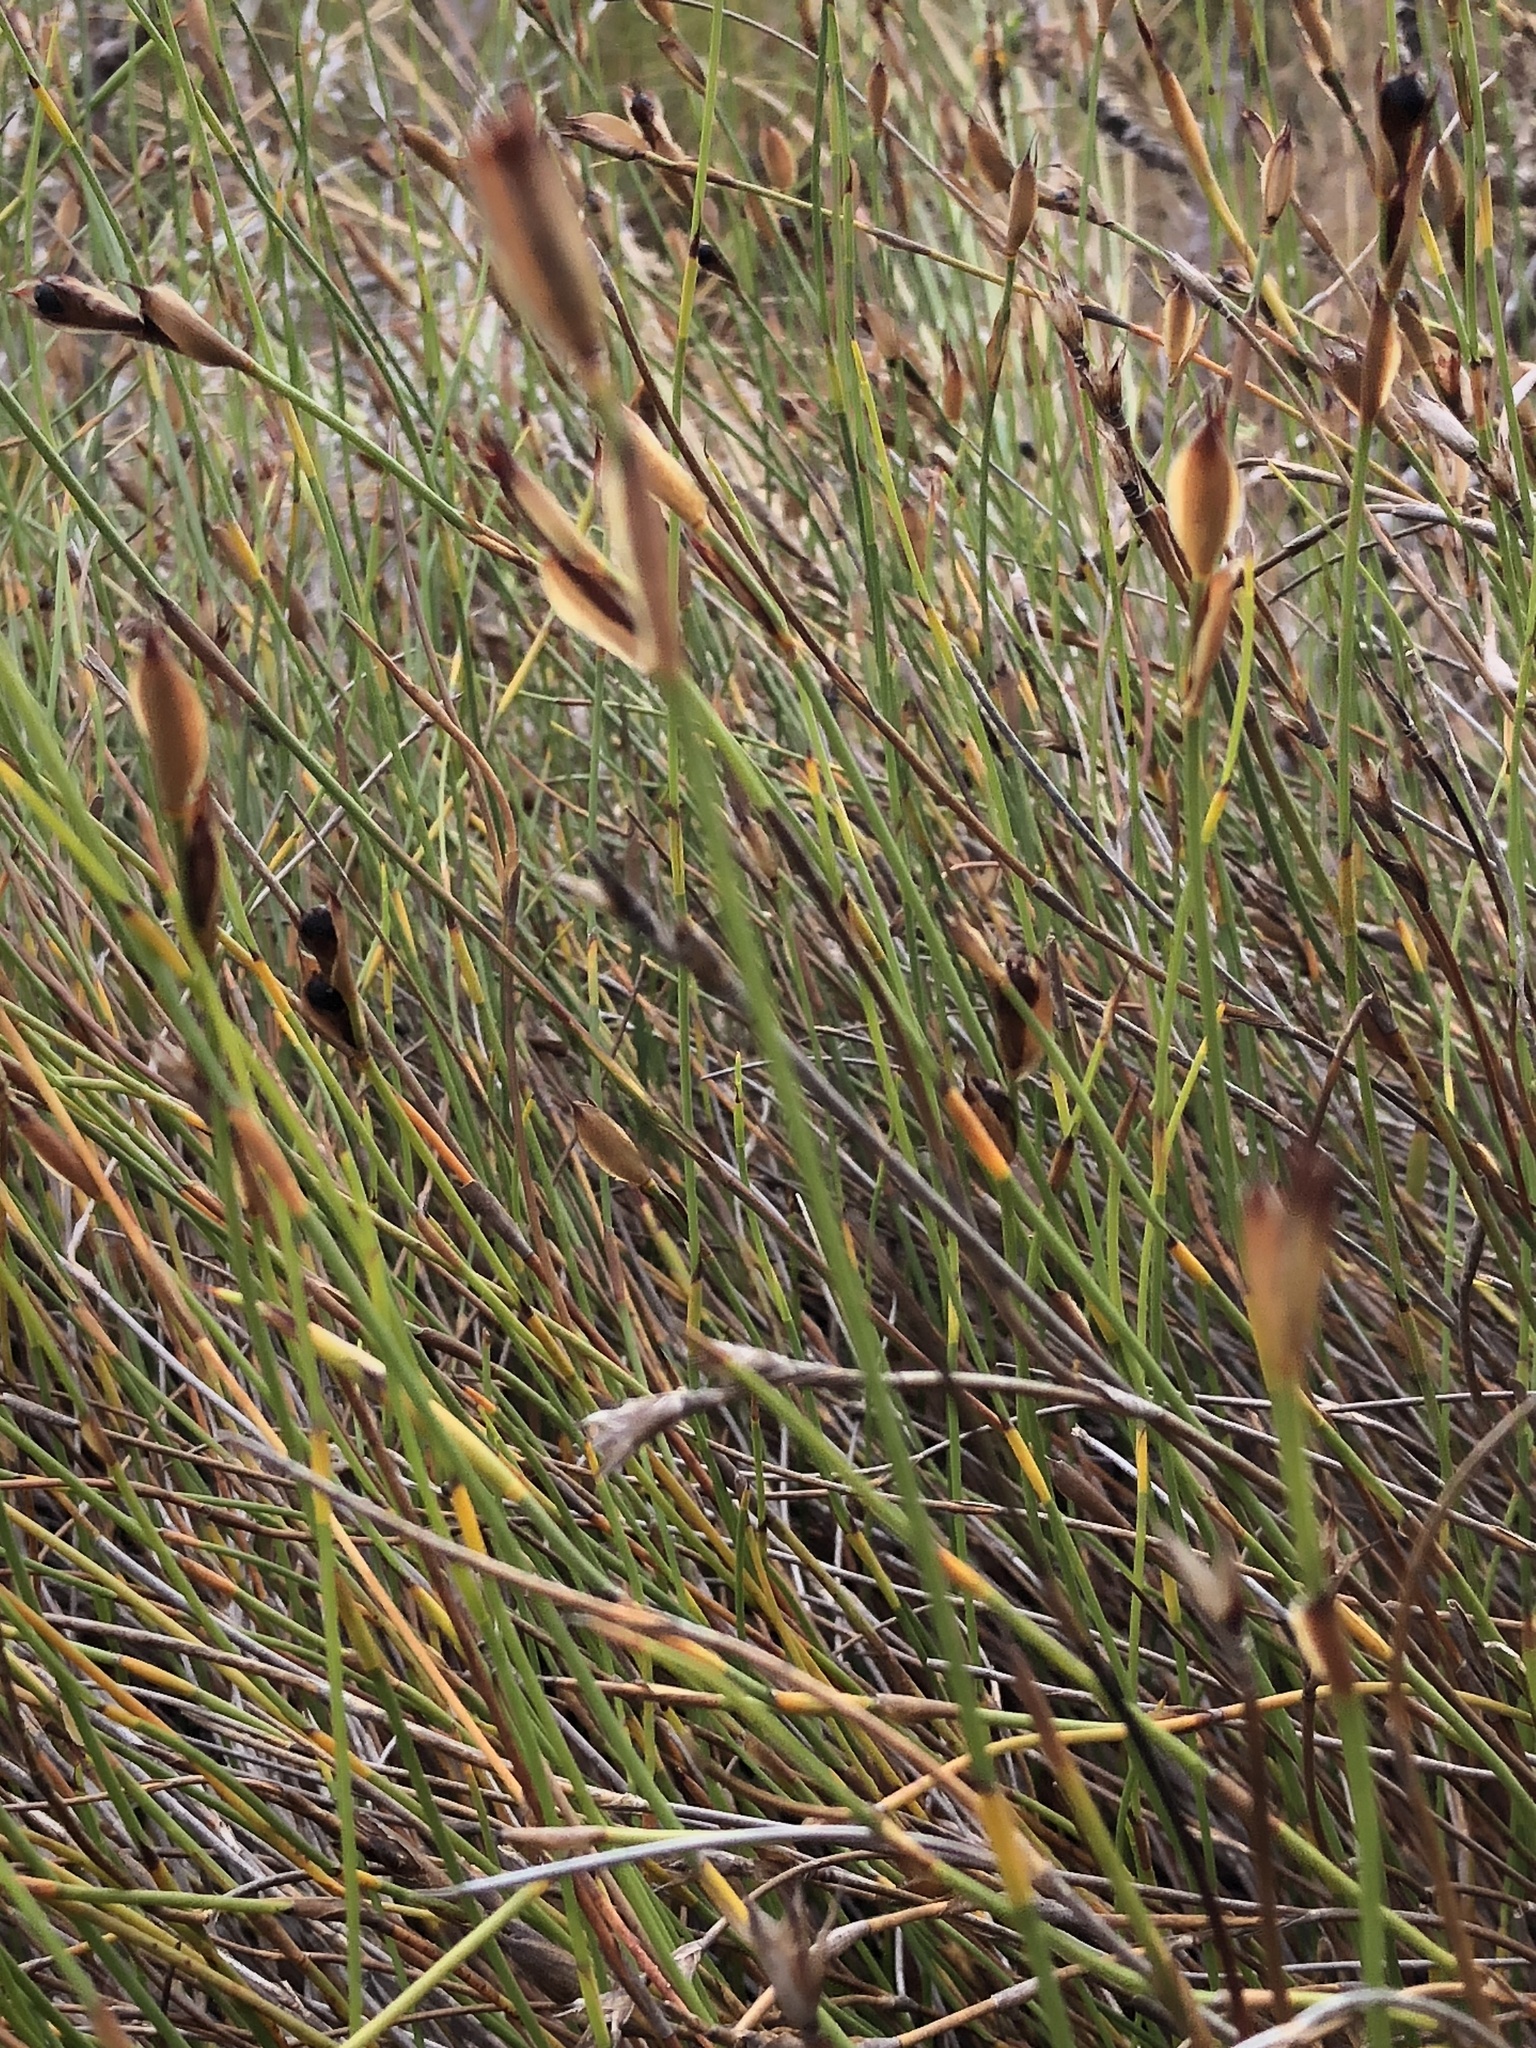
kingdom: Plantae
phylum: Tracheophyta
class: Liliopsida
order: Poales
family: Restionaceae
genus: Willdenowia
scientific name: Willdenowia sulcata
